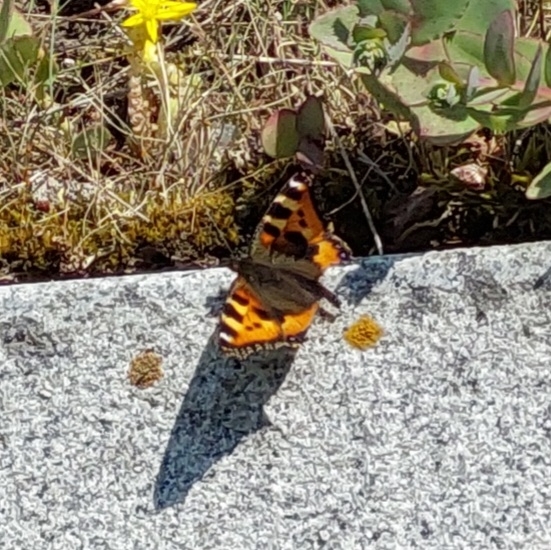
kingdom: Animalia
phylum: Arthropoda
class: Insecta
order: Lepidoptera
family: Nymphalidae
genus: Aglais
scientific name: Aglais urticae
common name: Small tortoiseshell
